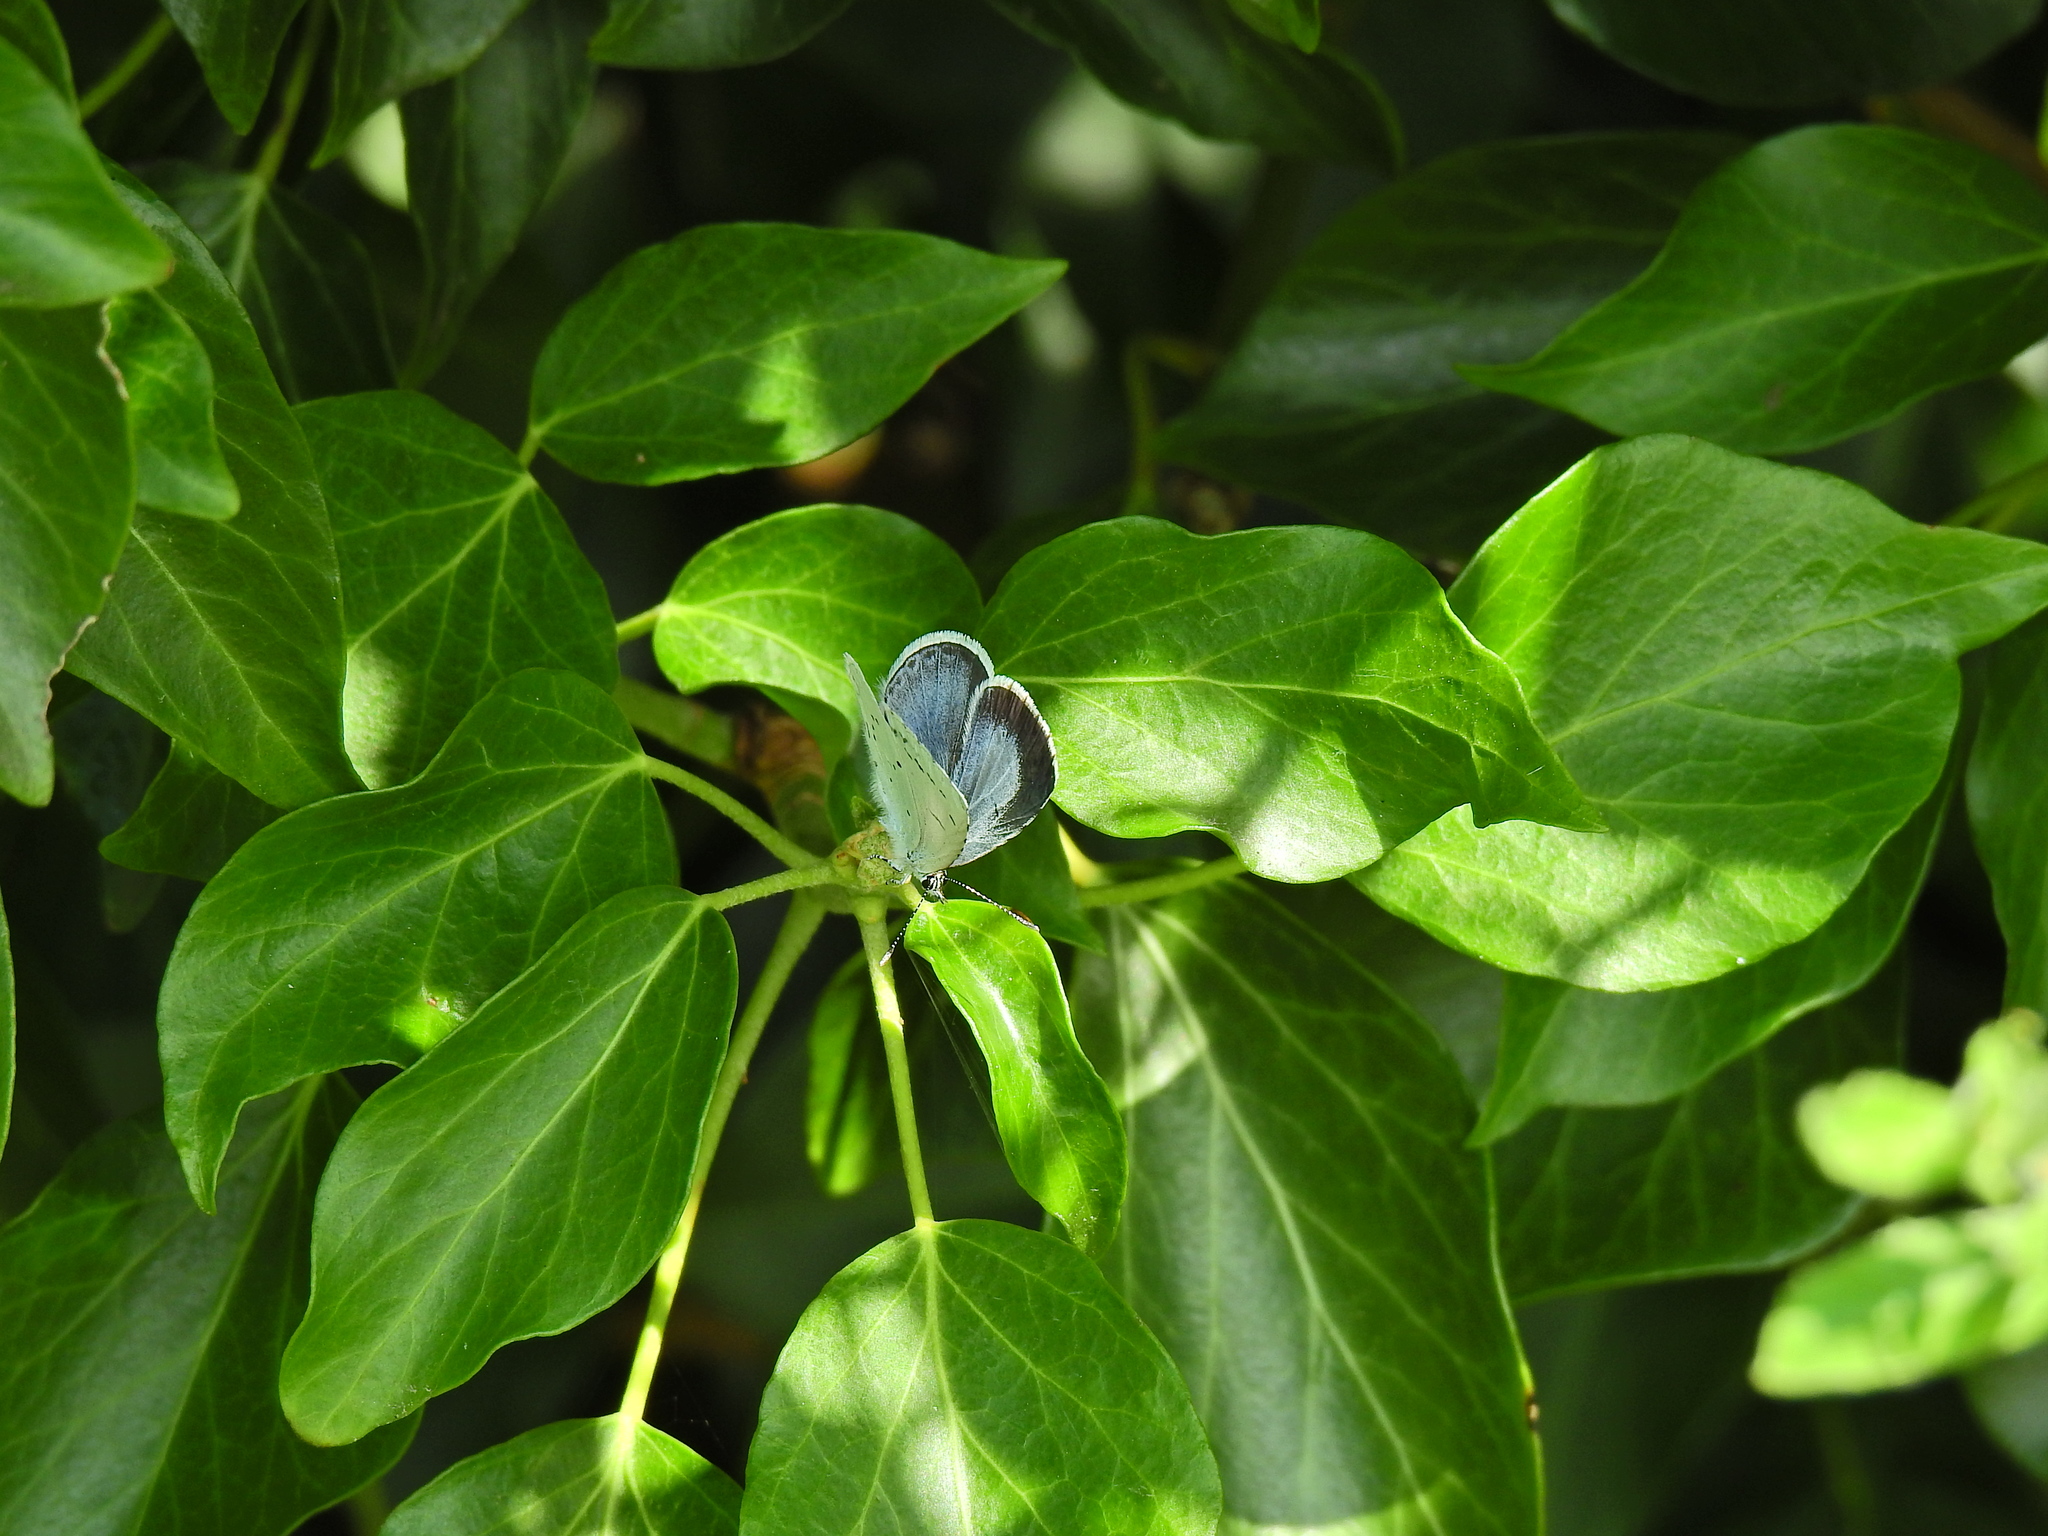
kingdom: Animalia
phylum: Arthropoda
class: Insecta
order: Lepidoptera
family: Lycaenidae
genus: Celastrina
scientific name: Celastrina argiolus
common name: Holly blue
